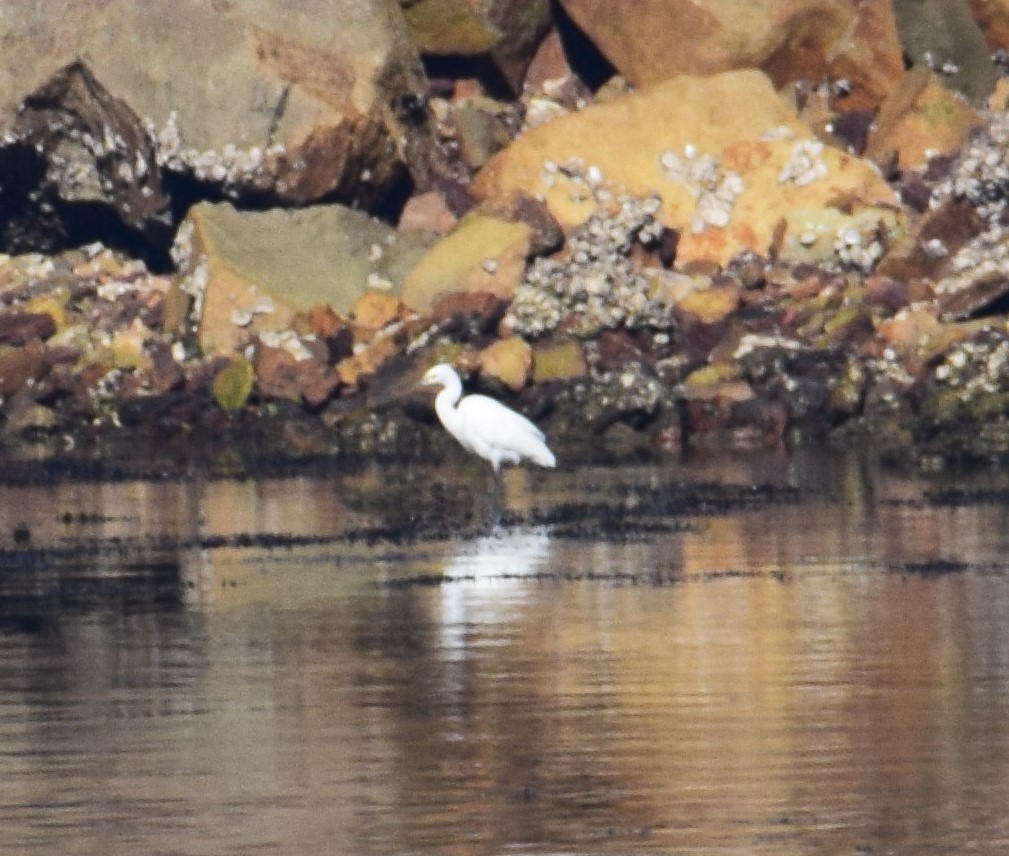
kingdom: Animalia
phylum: Chordata
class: Aves
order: Pelecaniformes
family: Ardeidae
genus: Egretta
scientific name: Egretta garzetta
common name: Little egret
